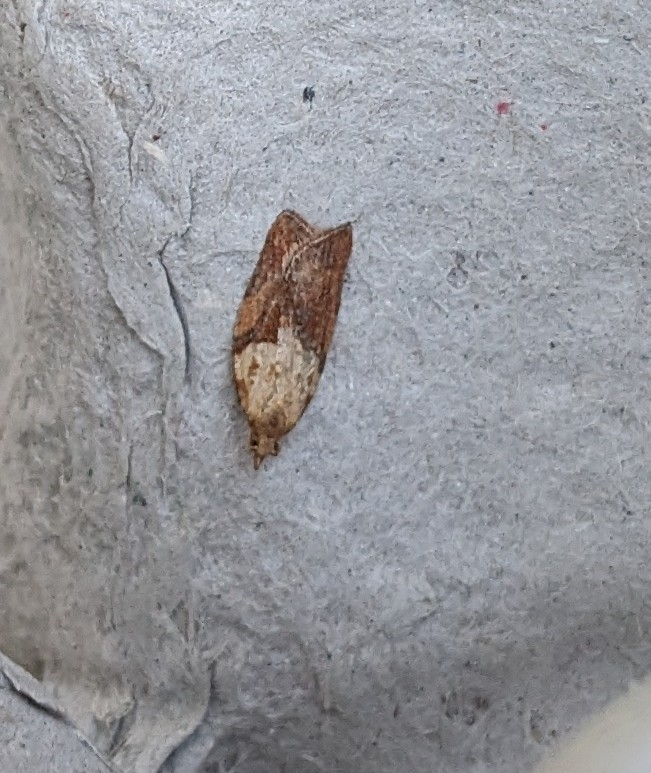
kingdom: Animalia
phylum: Arthropoda
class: Insecta
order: Lepidoptera
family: Tortricidae
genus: Epiphyas
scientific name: Epiphyas postvittana
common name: Light brown apple moth
